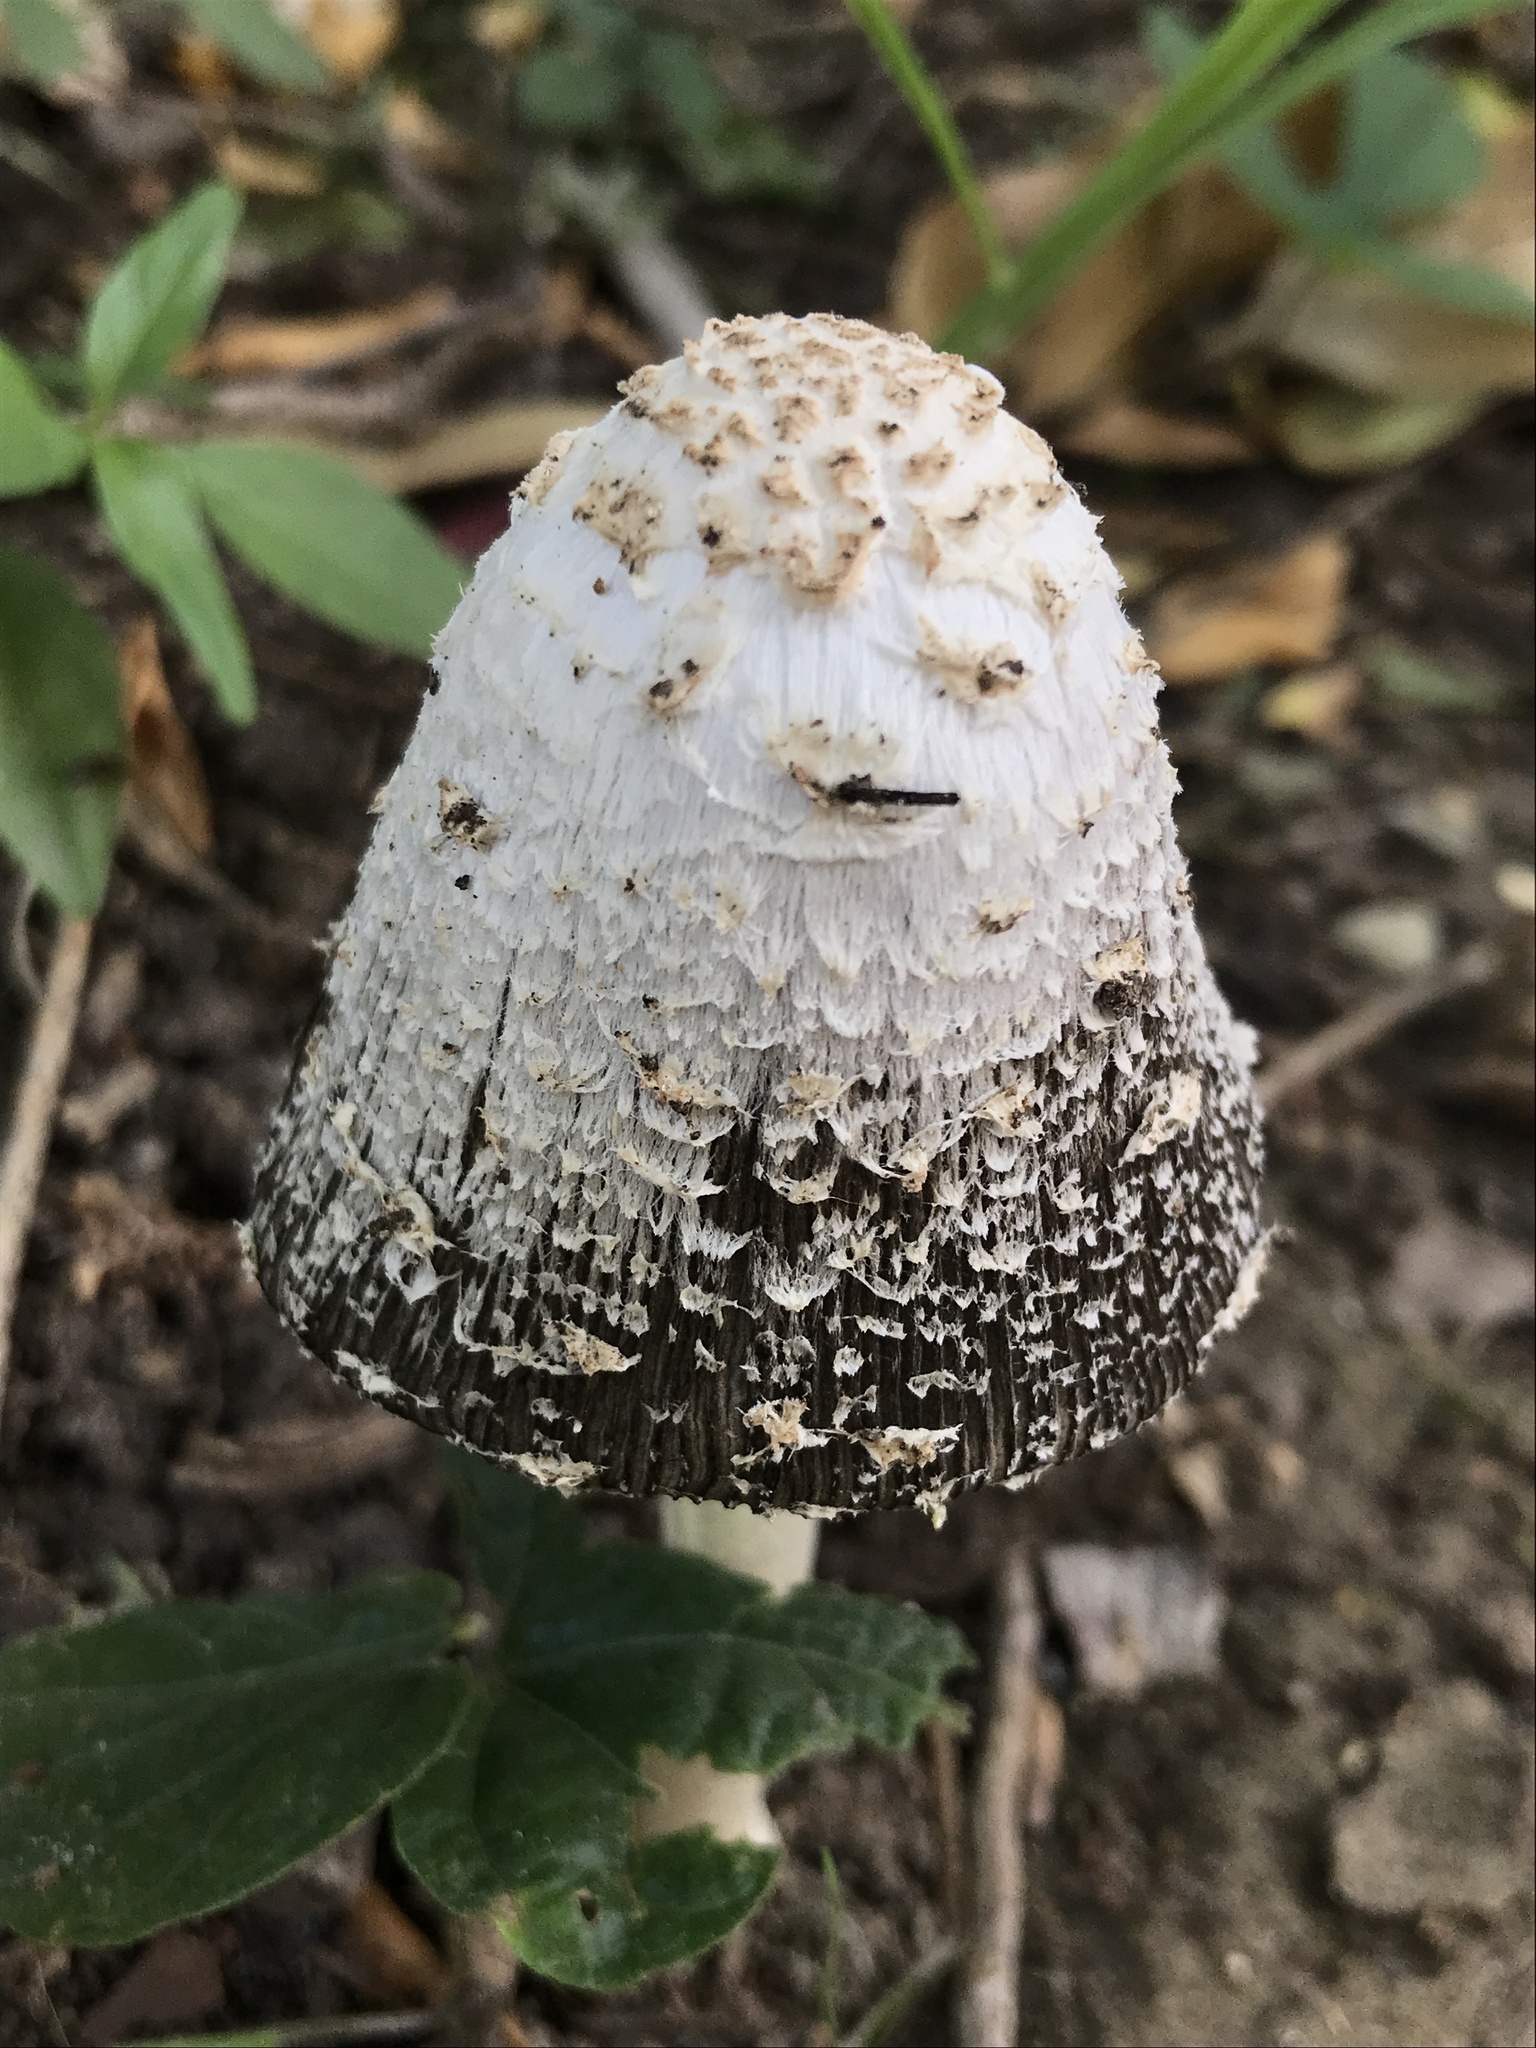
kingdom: Fungi
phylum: Basidiomycota
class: Agaricomycetes
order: Agaricales
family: Agaricaceae
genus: Coprinus
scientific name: Coprinus comatus
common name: Lawyer's wig
